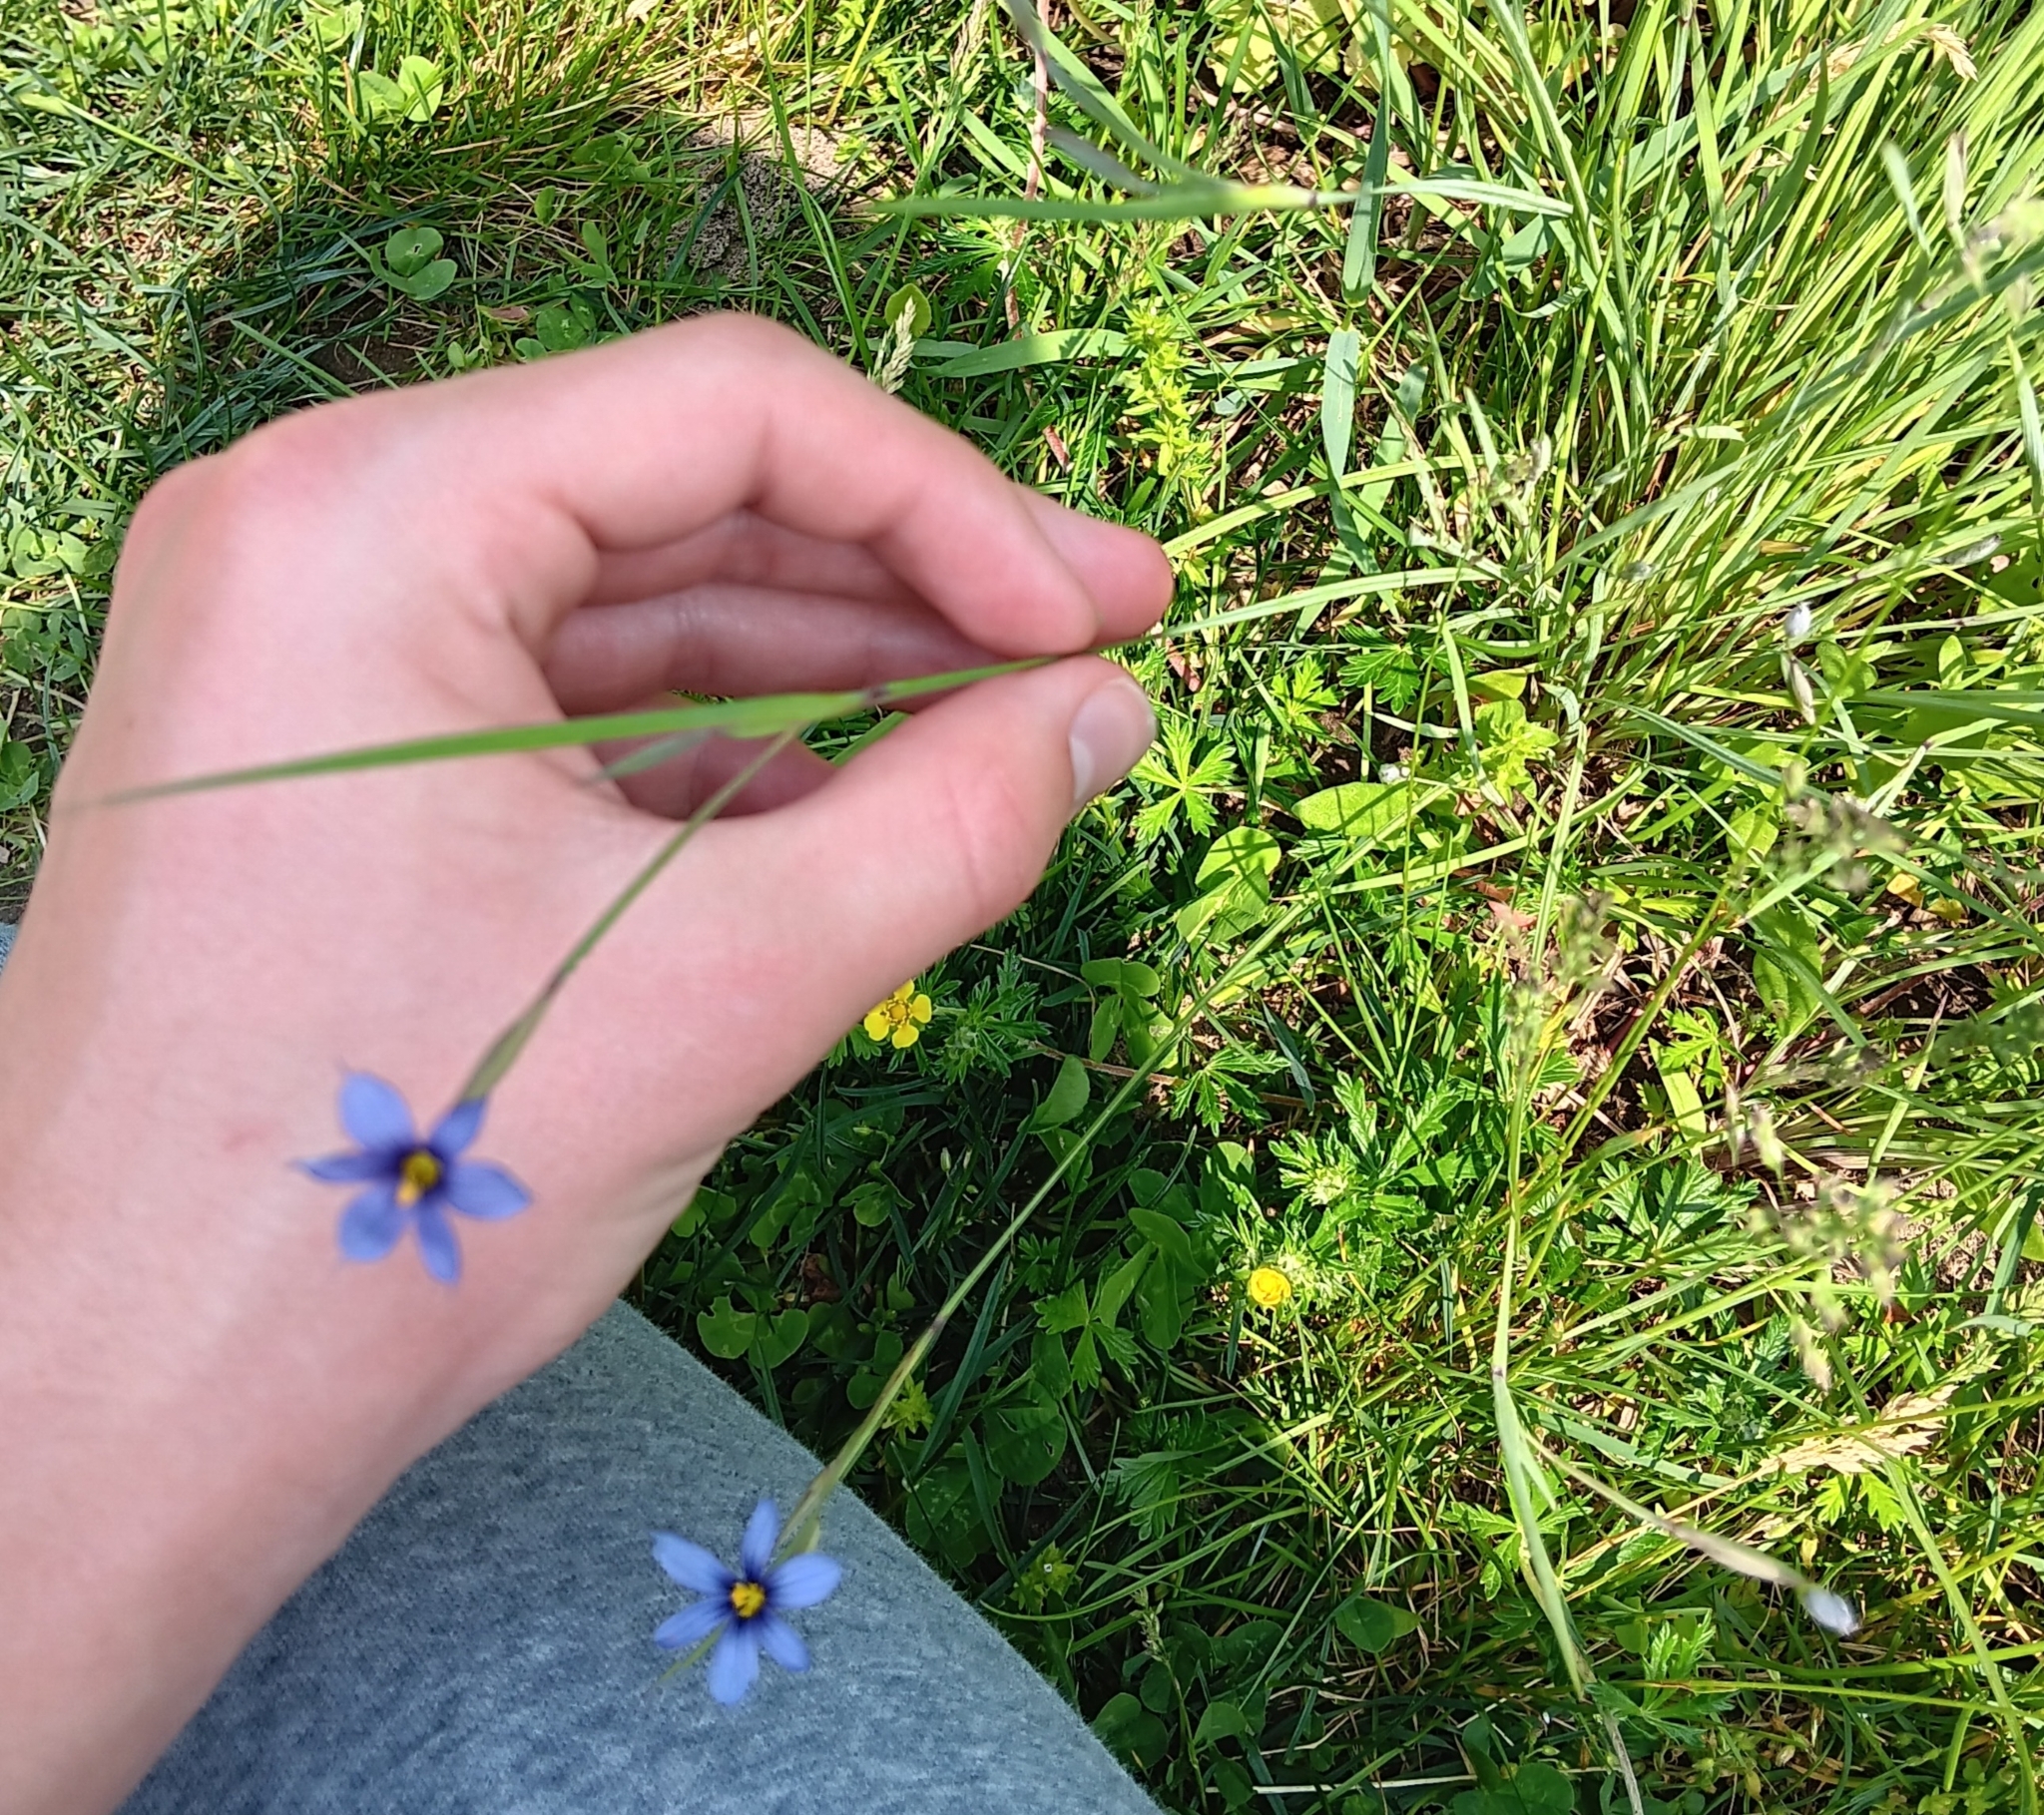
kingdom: Plantae
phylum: Tracheophyta
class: Liliopsida
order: Asparagales
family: Iridaceae
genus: Sisyrinchium
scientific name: Sisyrinchium montanum
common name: American blue-eyed-grass
